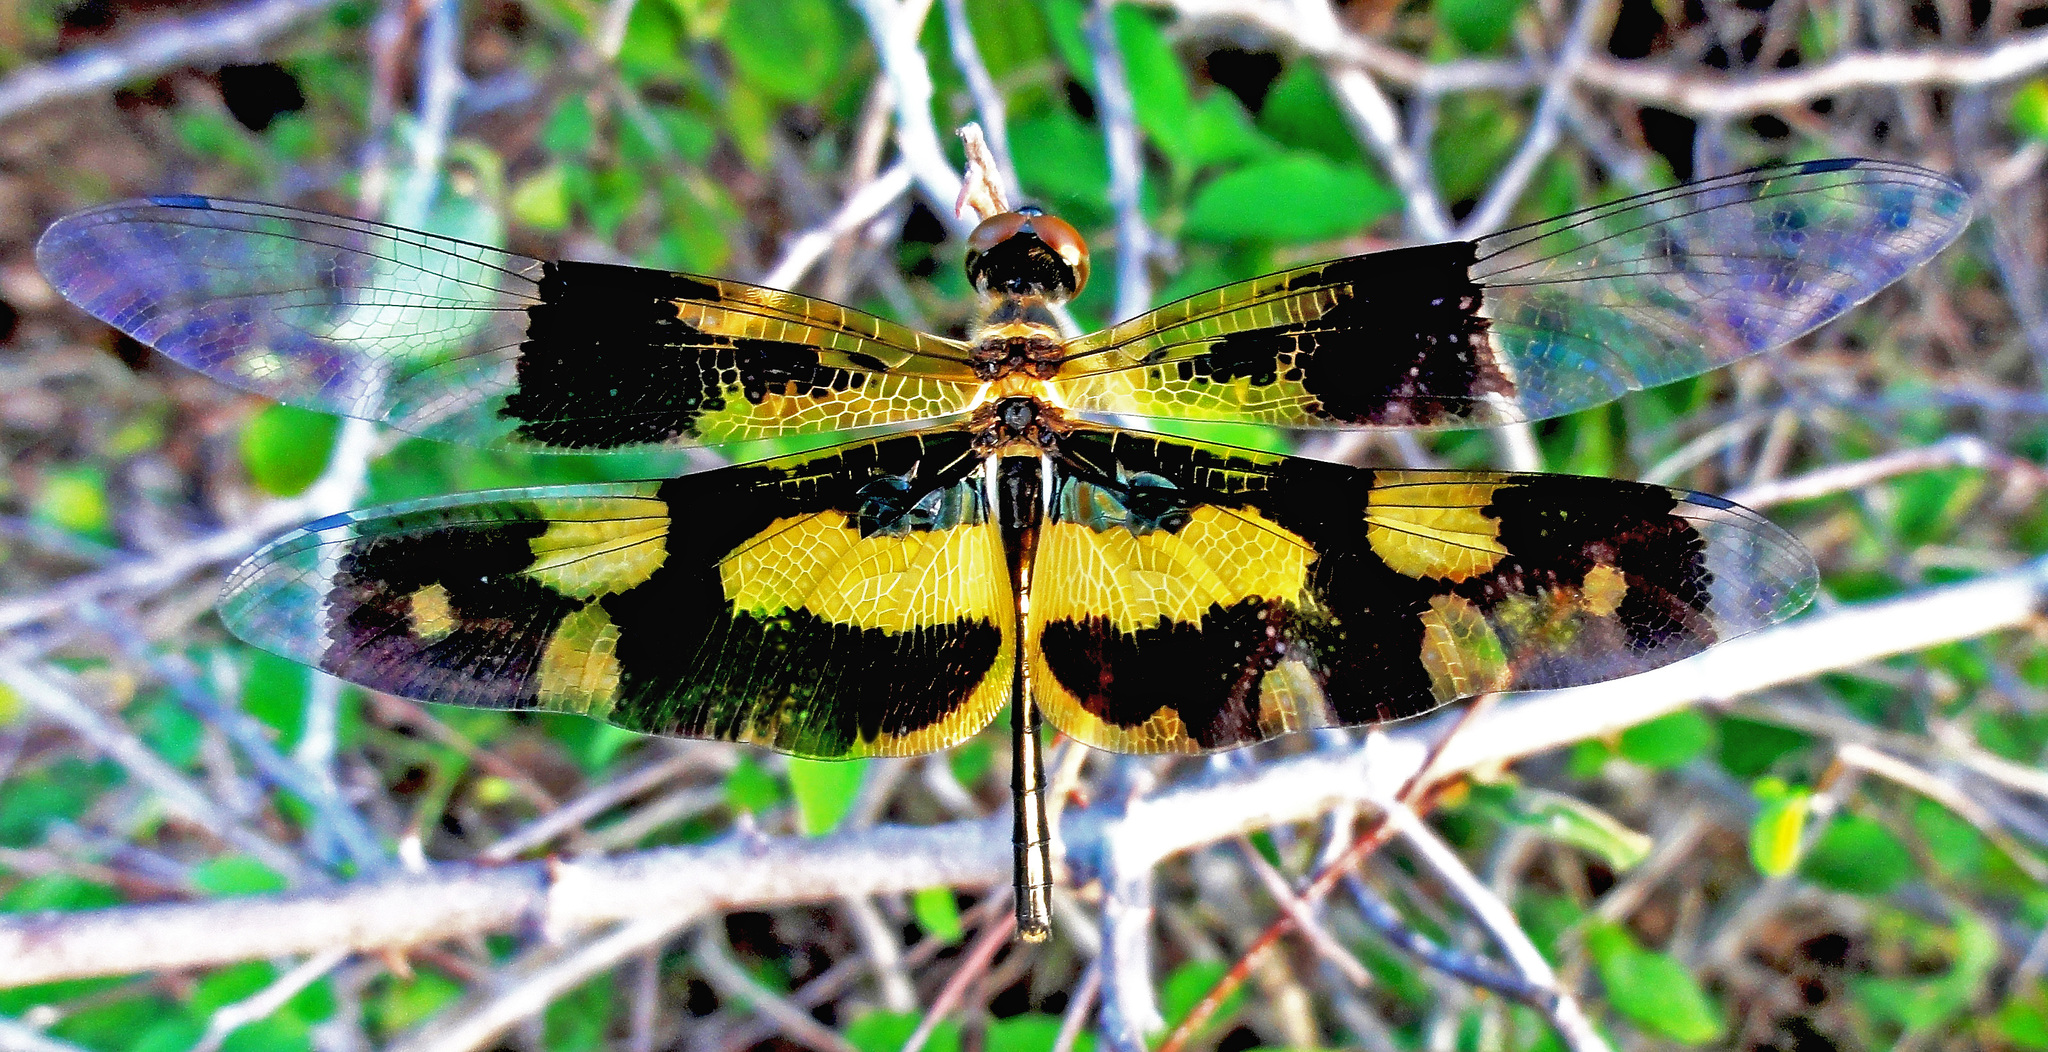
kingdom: Animalia
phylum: Arthropoda
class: Insecta
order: Odonata
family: Libellulidae
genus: Rhyothemis
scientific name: Rhyothemis variegata
